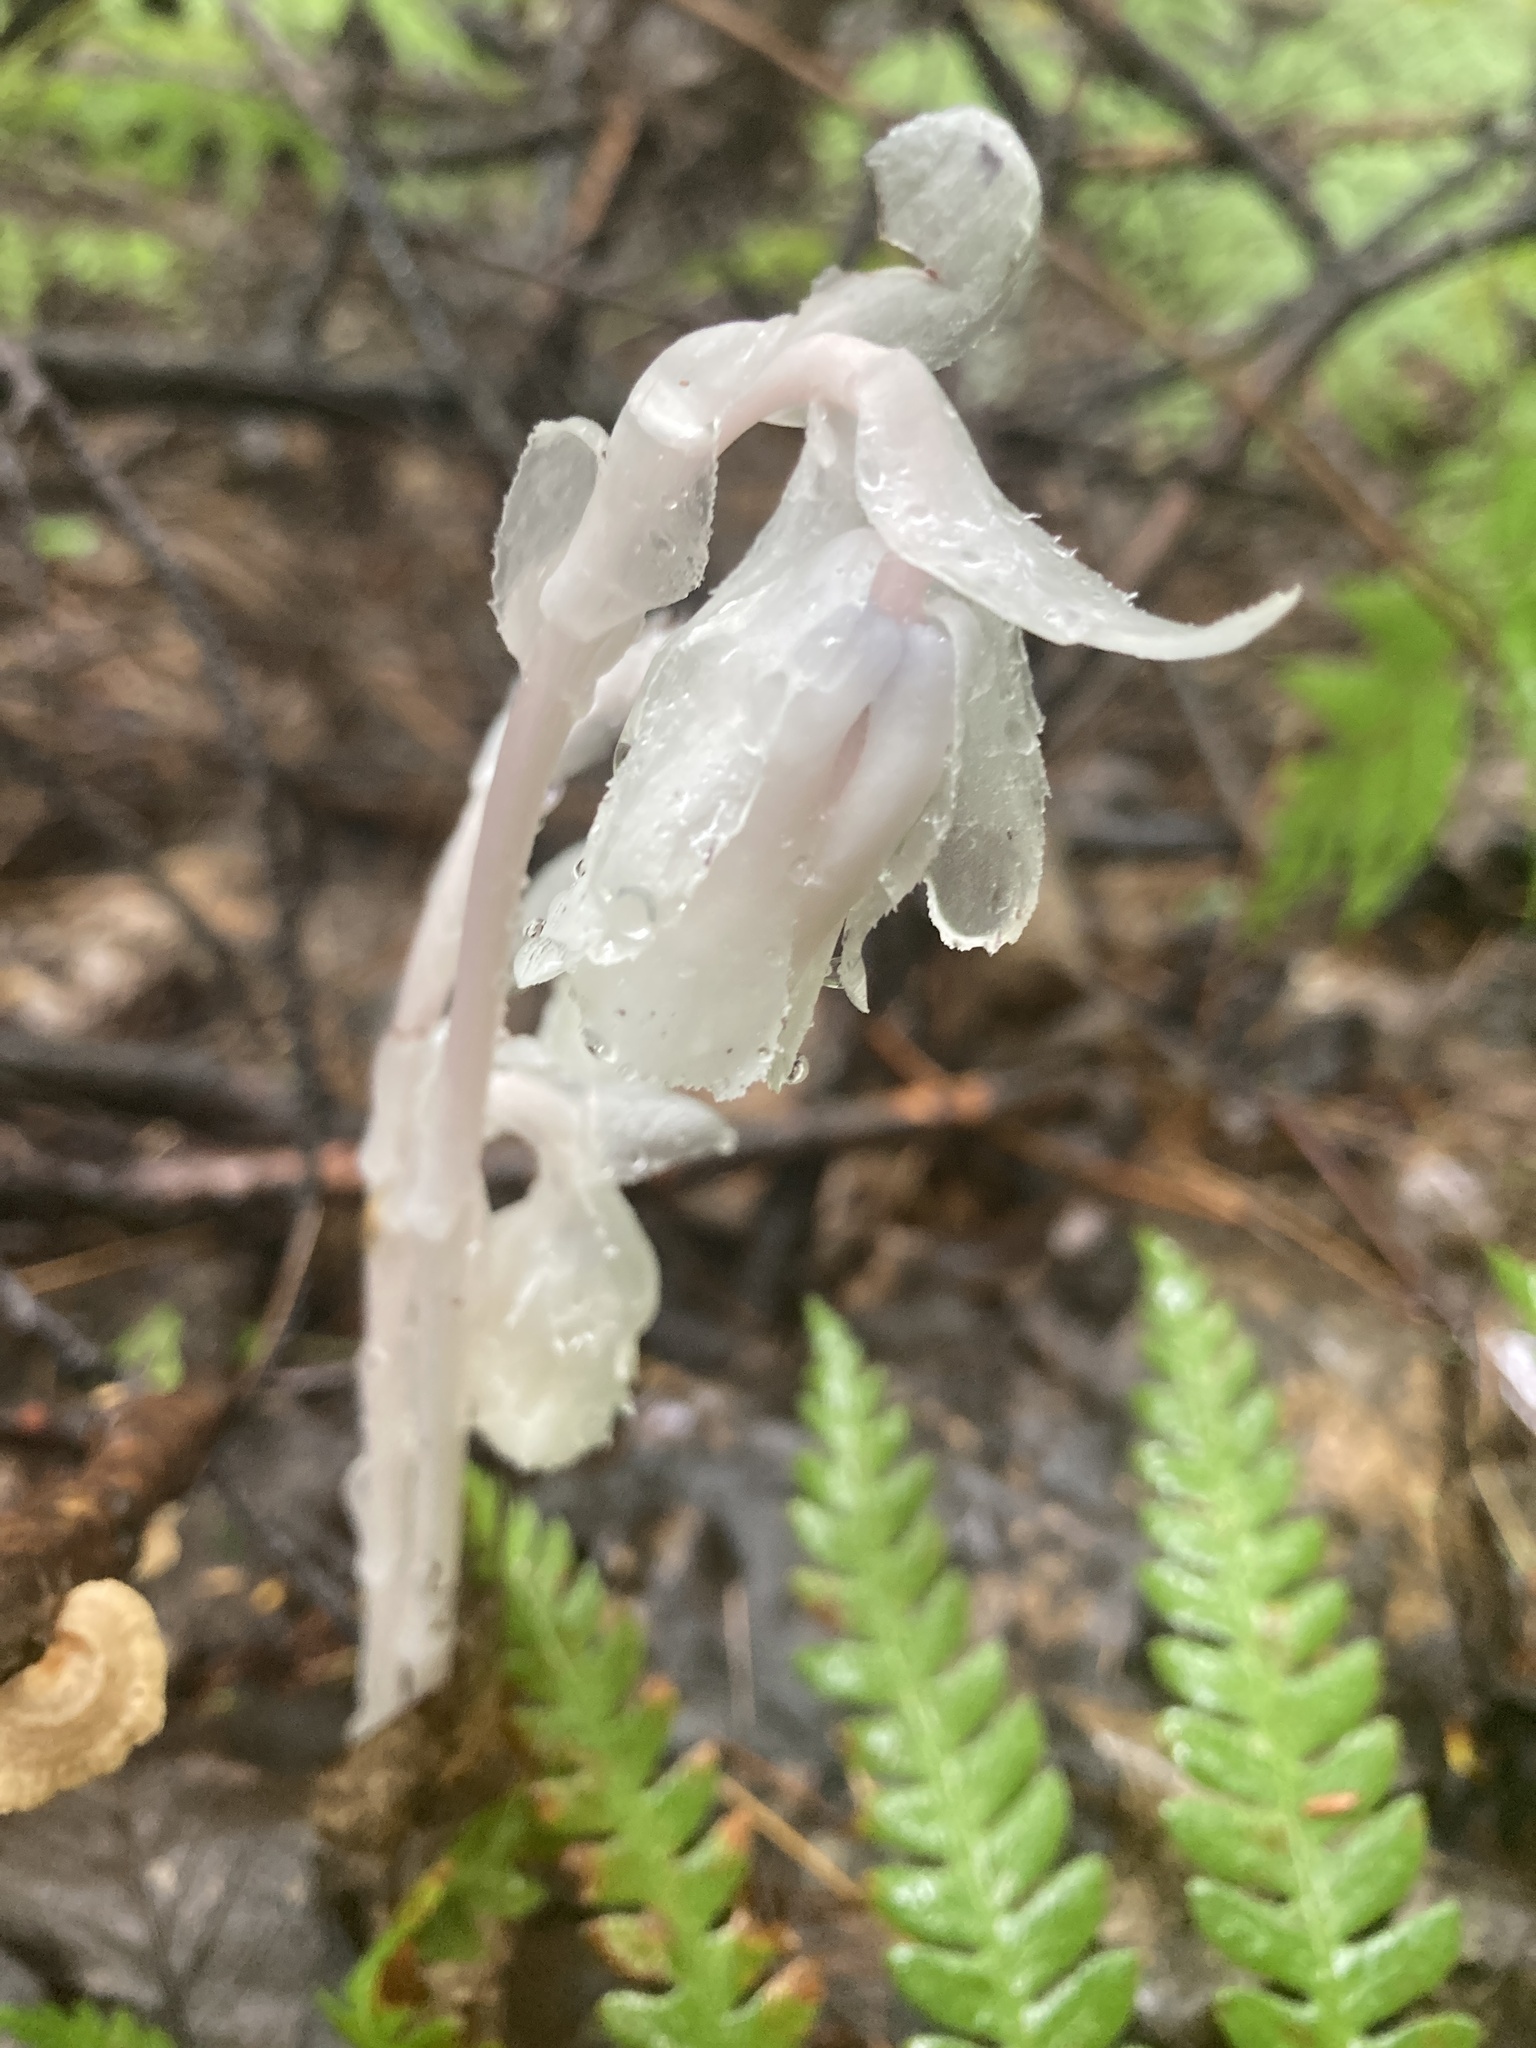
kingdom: Plantae
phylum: Tracheophyta
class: Magnoliopsida
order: Ericales
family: Ericaceae
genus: Monotropa
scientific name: Monotropa uniflora
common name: Convulsion root
